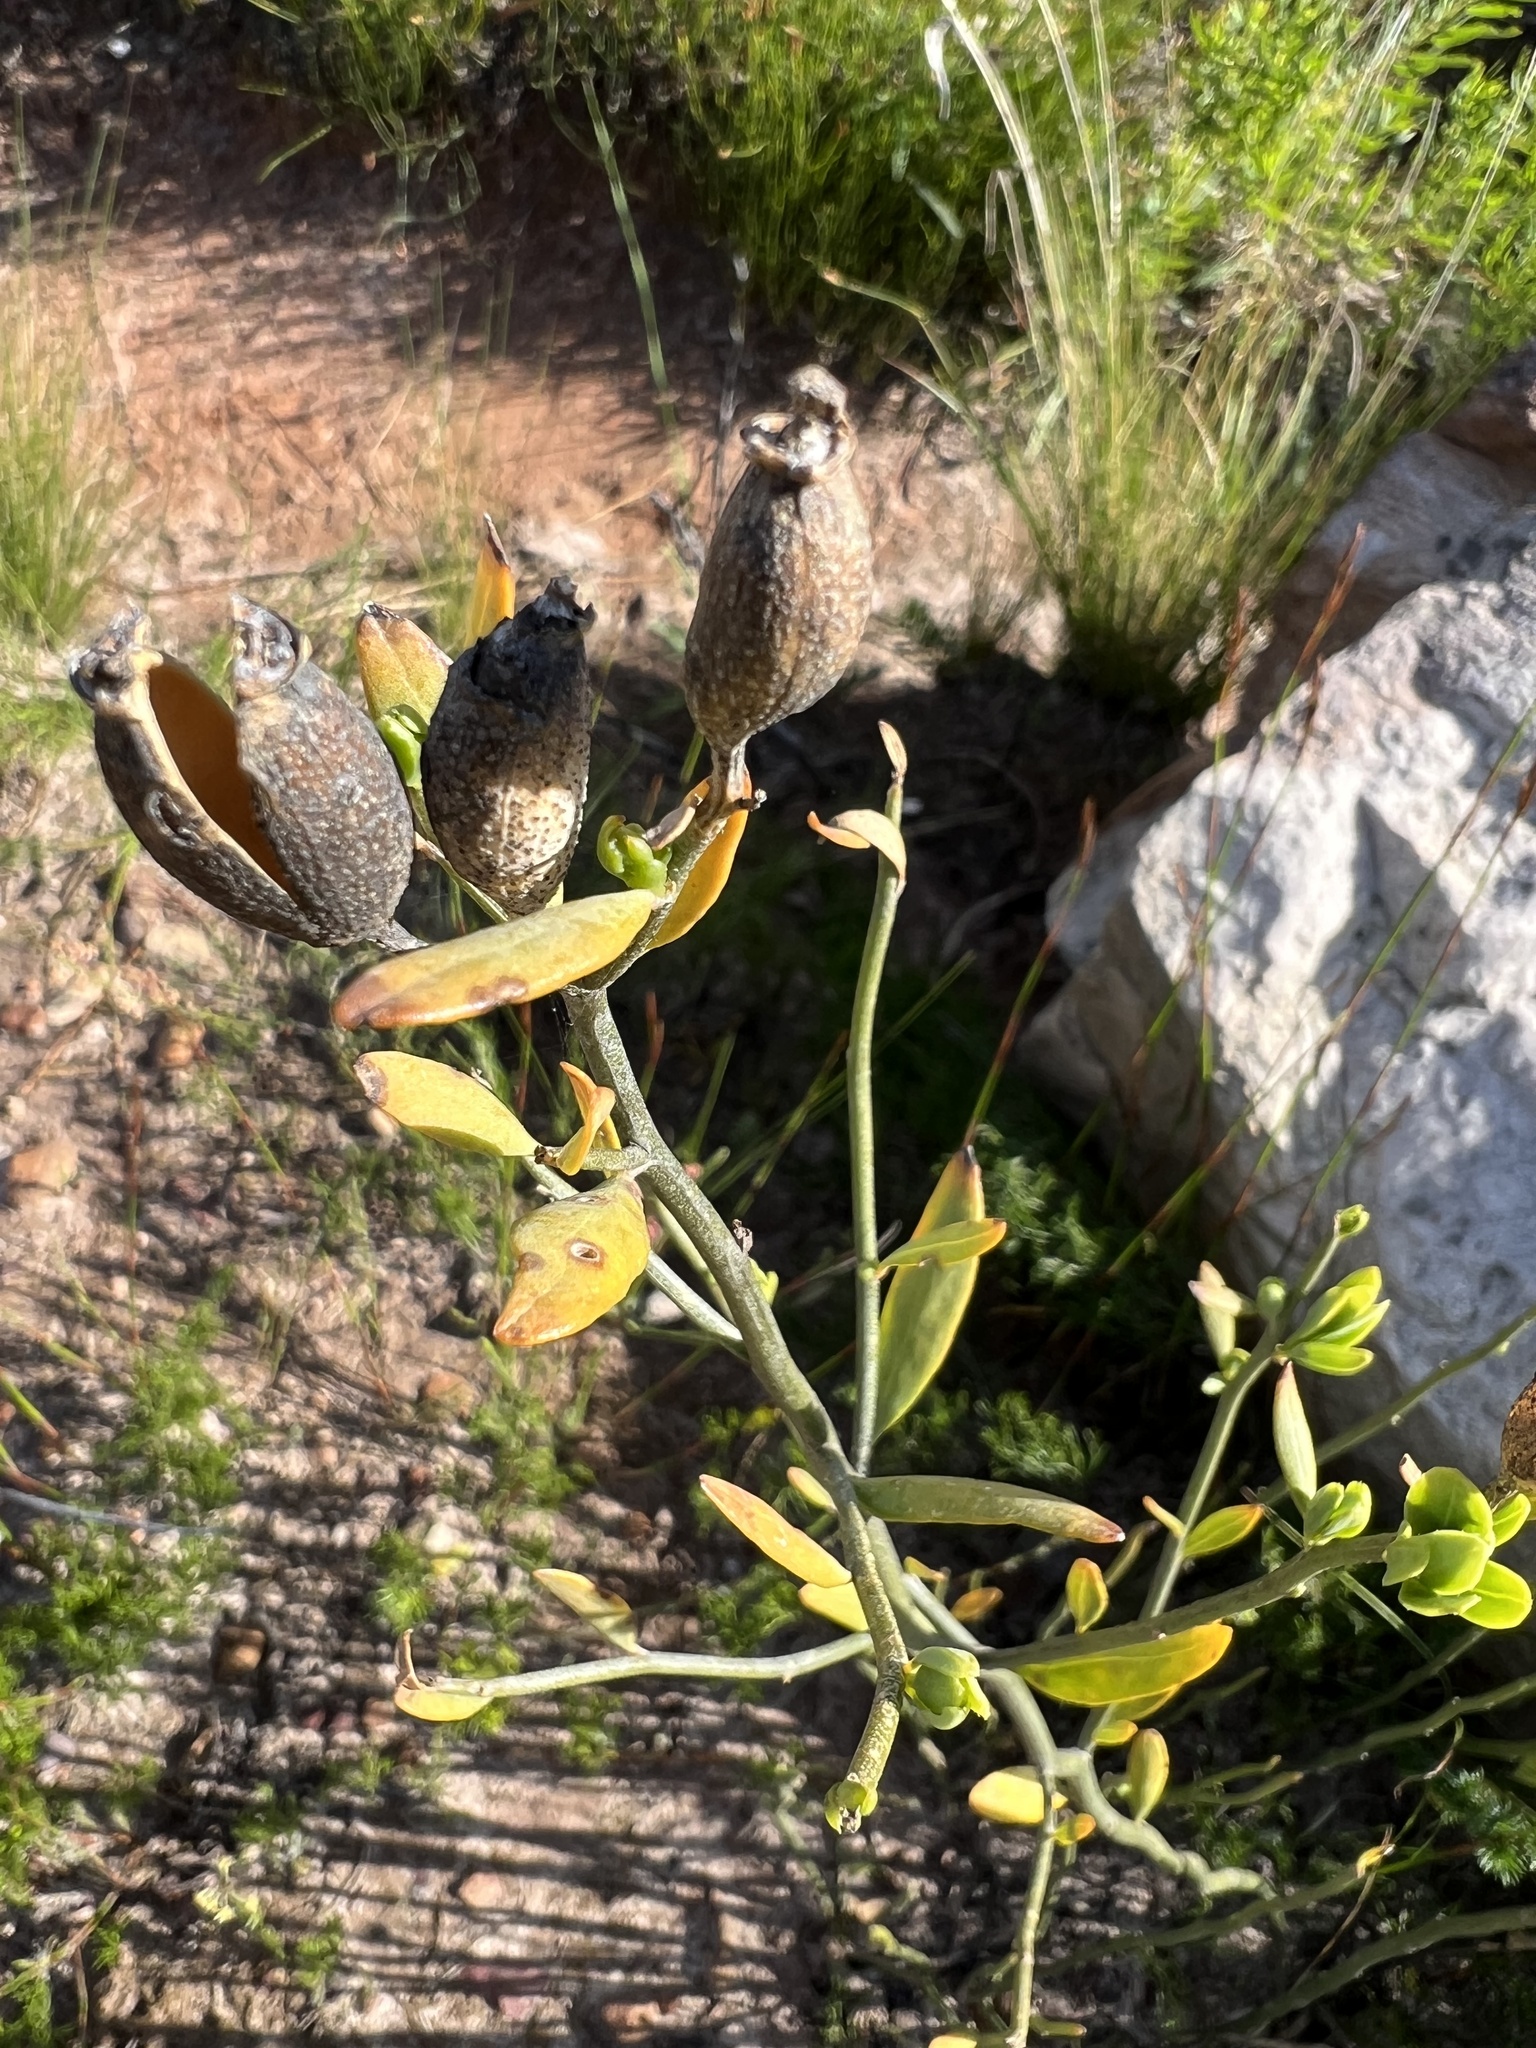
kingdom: Plantae
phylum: Tracheophyta
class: Magnoliopsida
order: Solanales
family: Montiniaceae
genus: Montinia
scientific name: Montinia caryophyllacea
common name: Wild clove-bush
